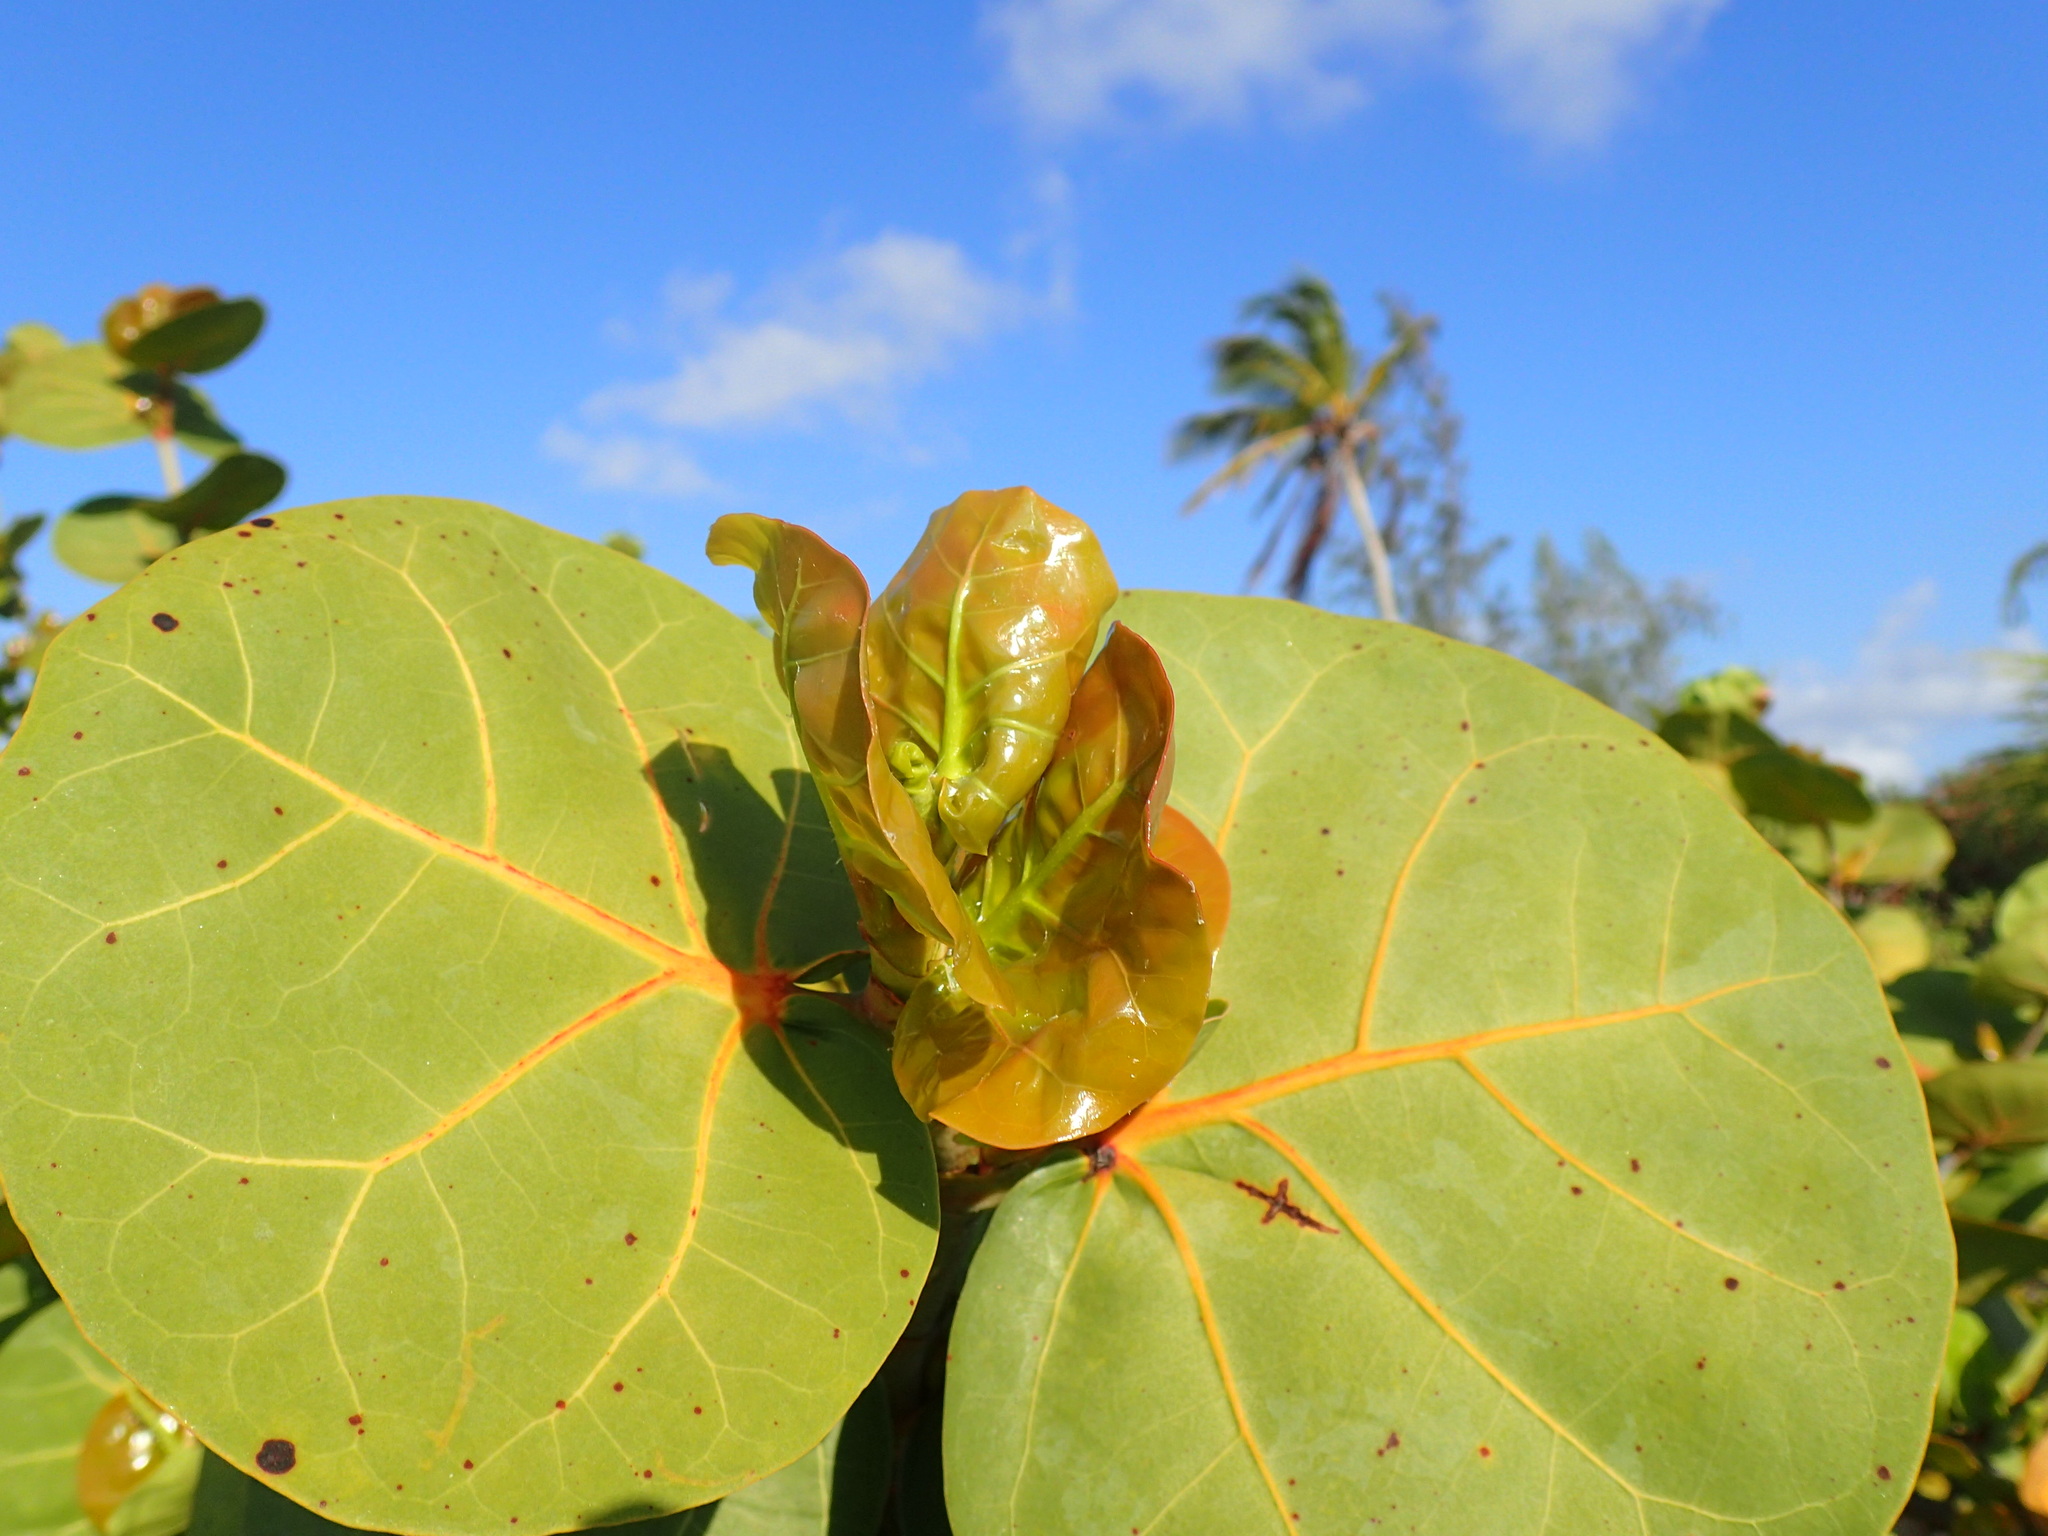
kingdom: Plantae
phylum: Tracheophyta
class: Magnoliopsida
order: Caryophyllales
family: Polygonaceae
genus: Coccoloba
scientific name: Coccoloba uvifera
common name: Seagrape
